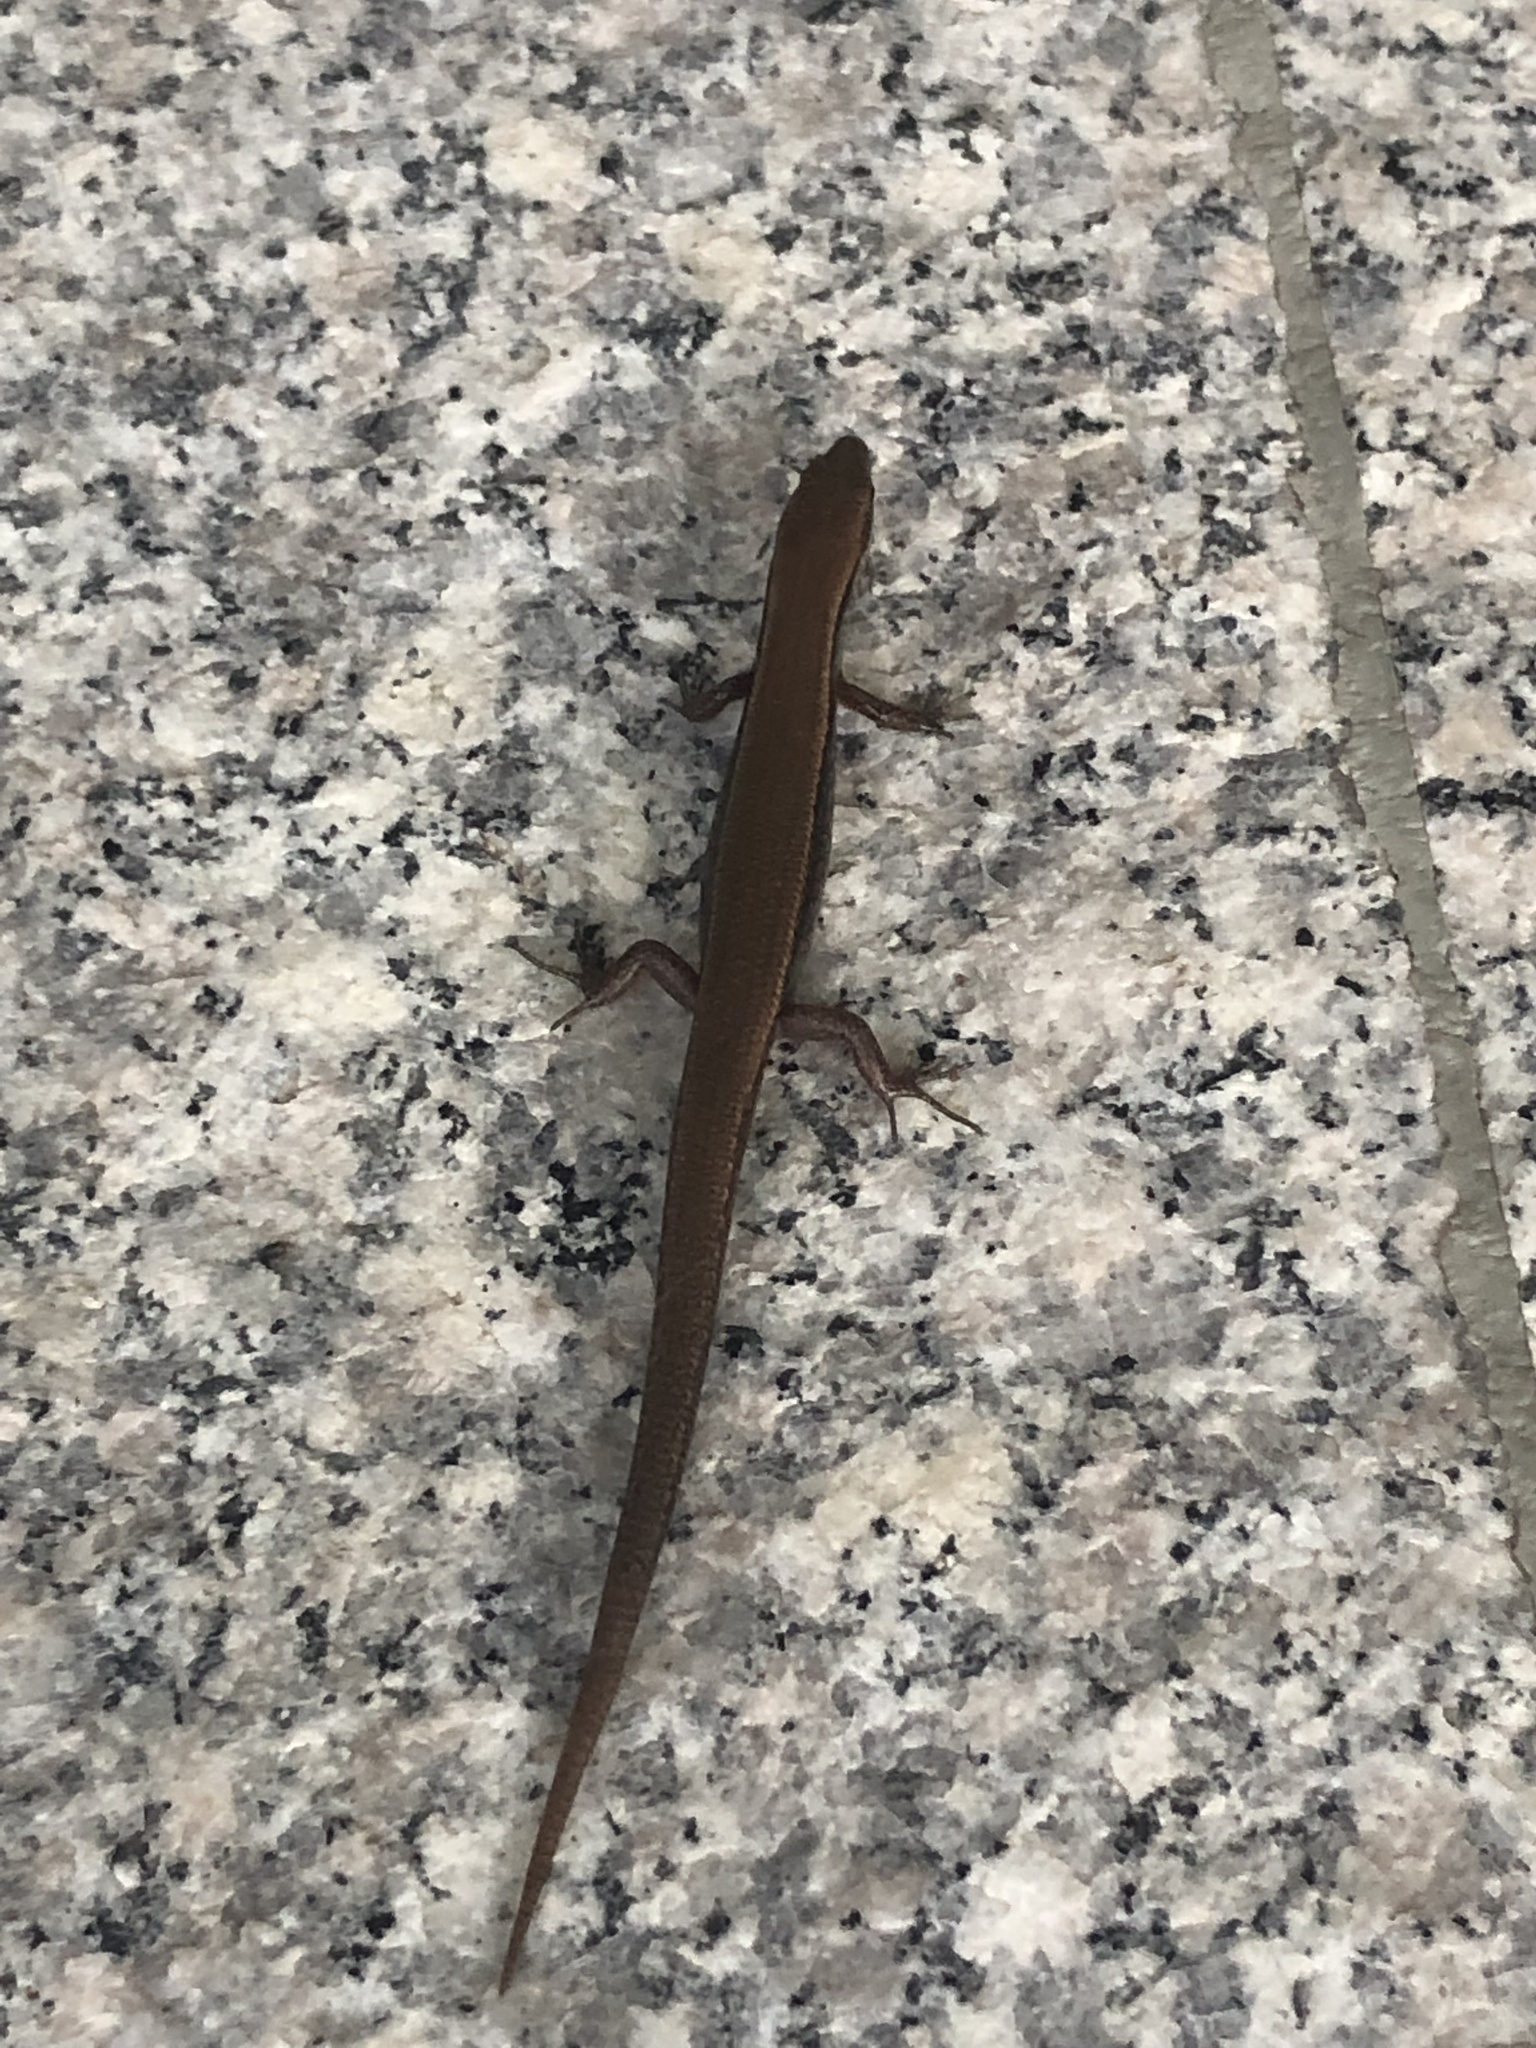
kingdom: Animalia
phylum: Chordata
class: Squamata
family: Scincidae
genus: Scincella
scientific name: Scincella silvicola
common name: Taylor’s ground skink
